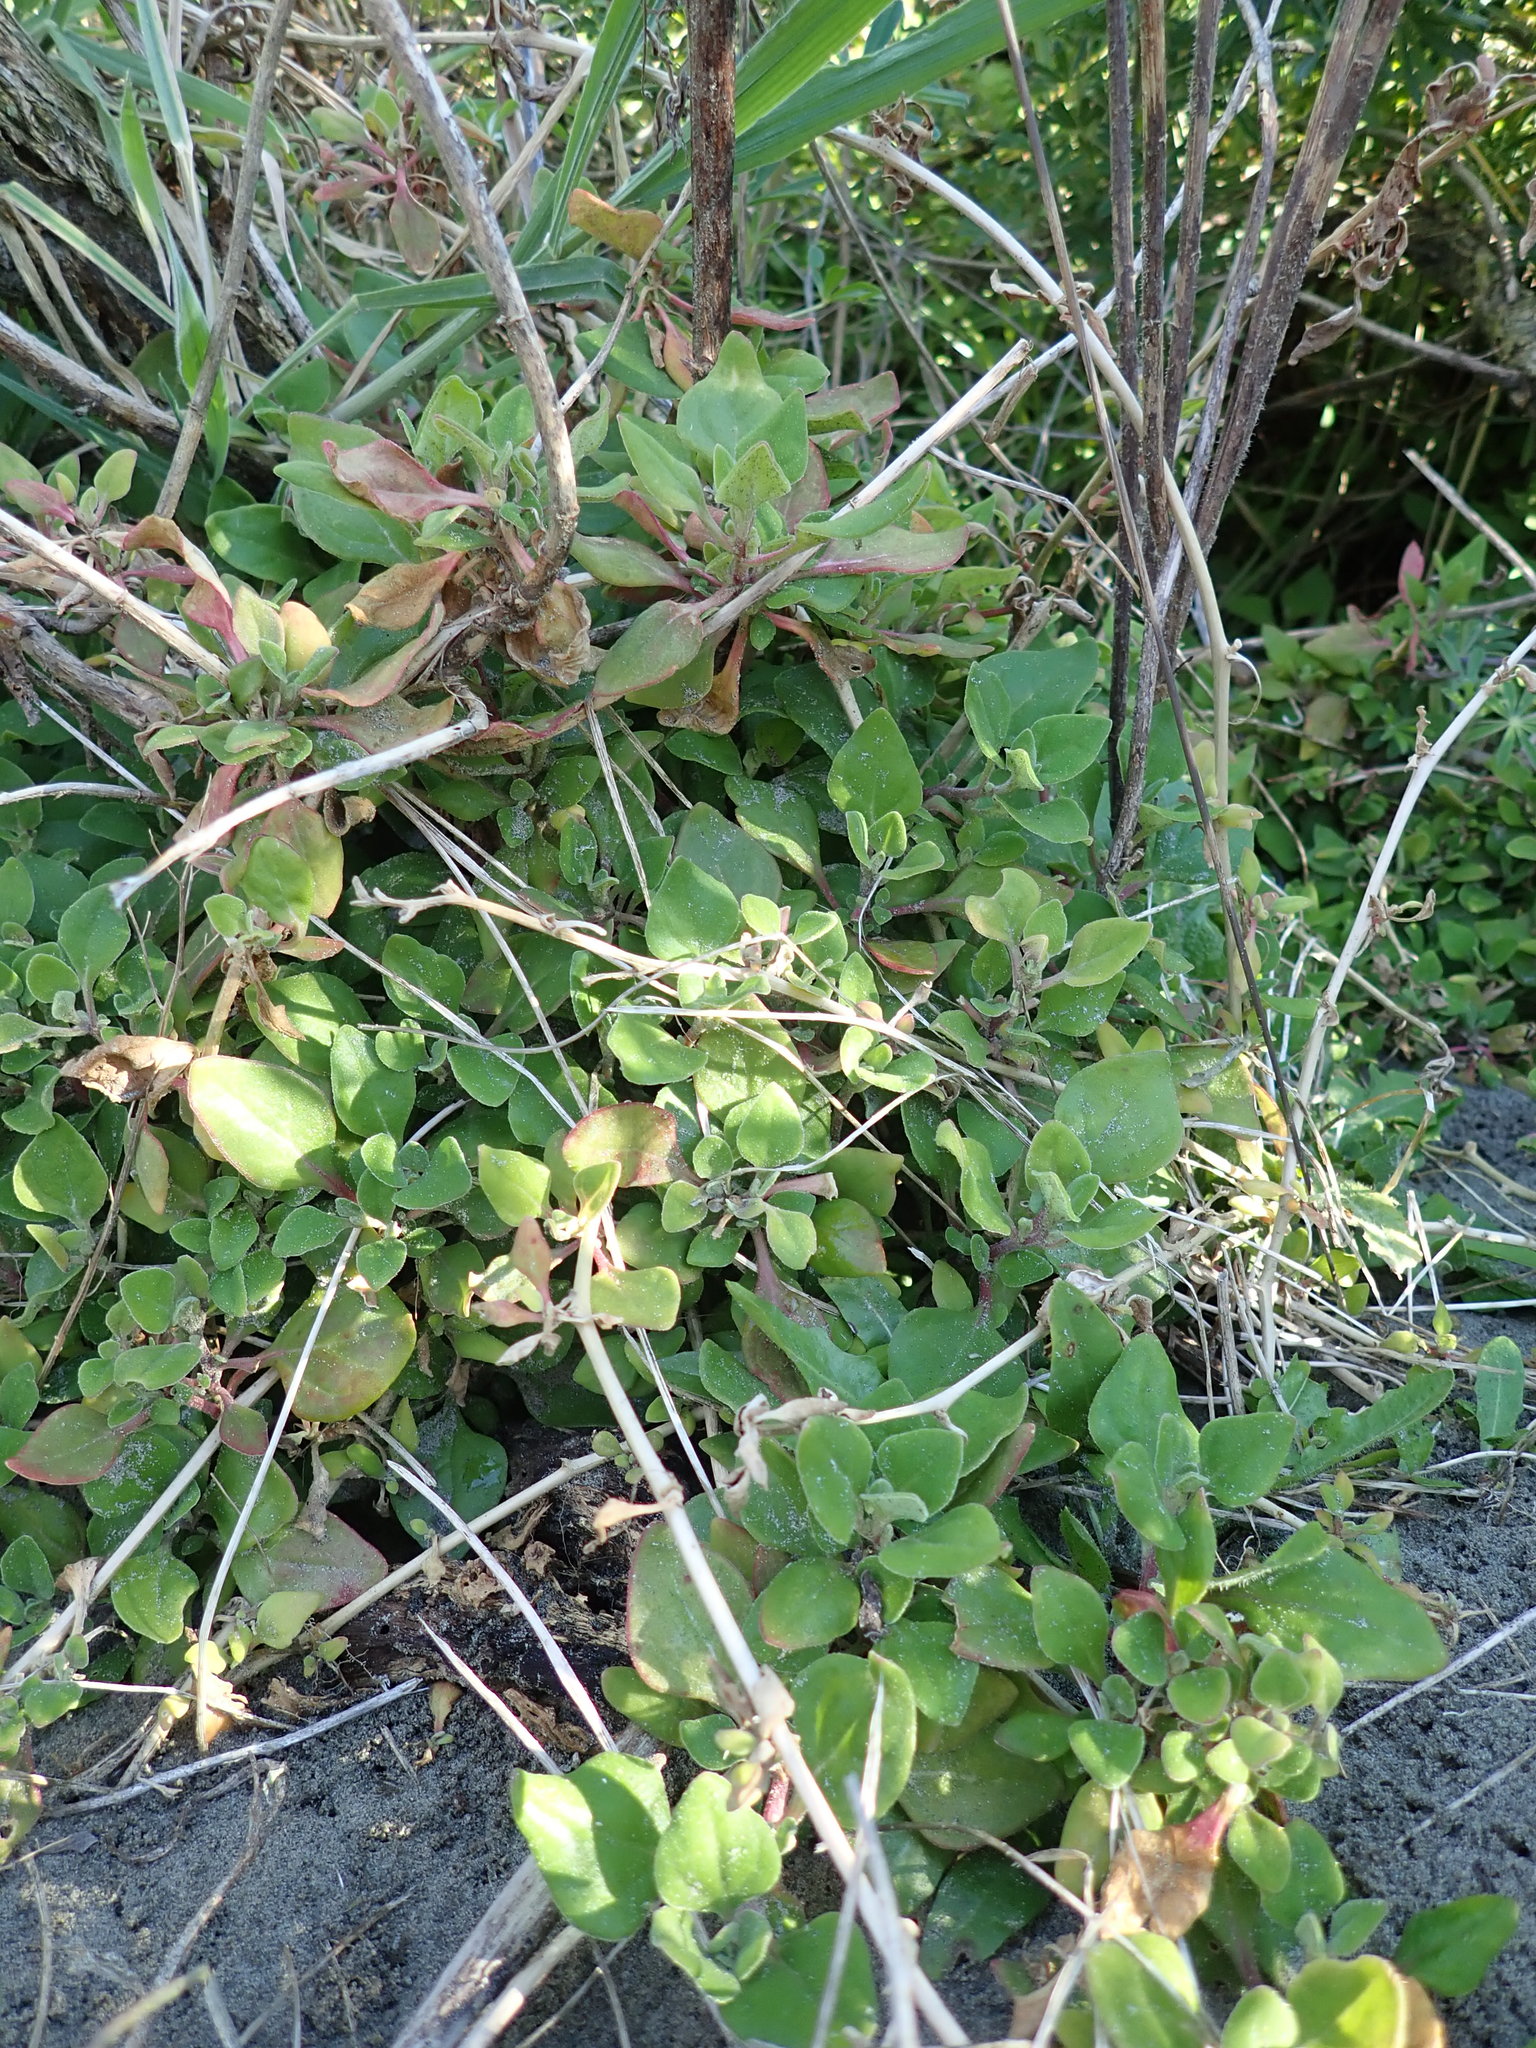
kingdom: Plantae
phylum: Tracheophyta
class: Magnoliopsida
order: Caryophyllales
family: Aizoaceae
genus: Tetragonia
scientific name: Tetragonia implexicoma
